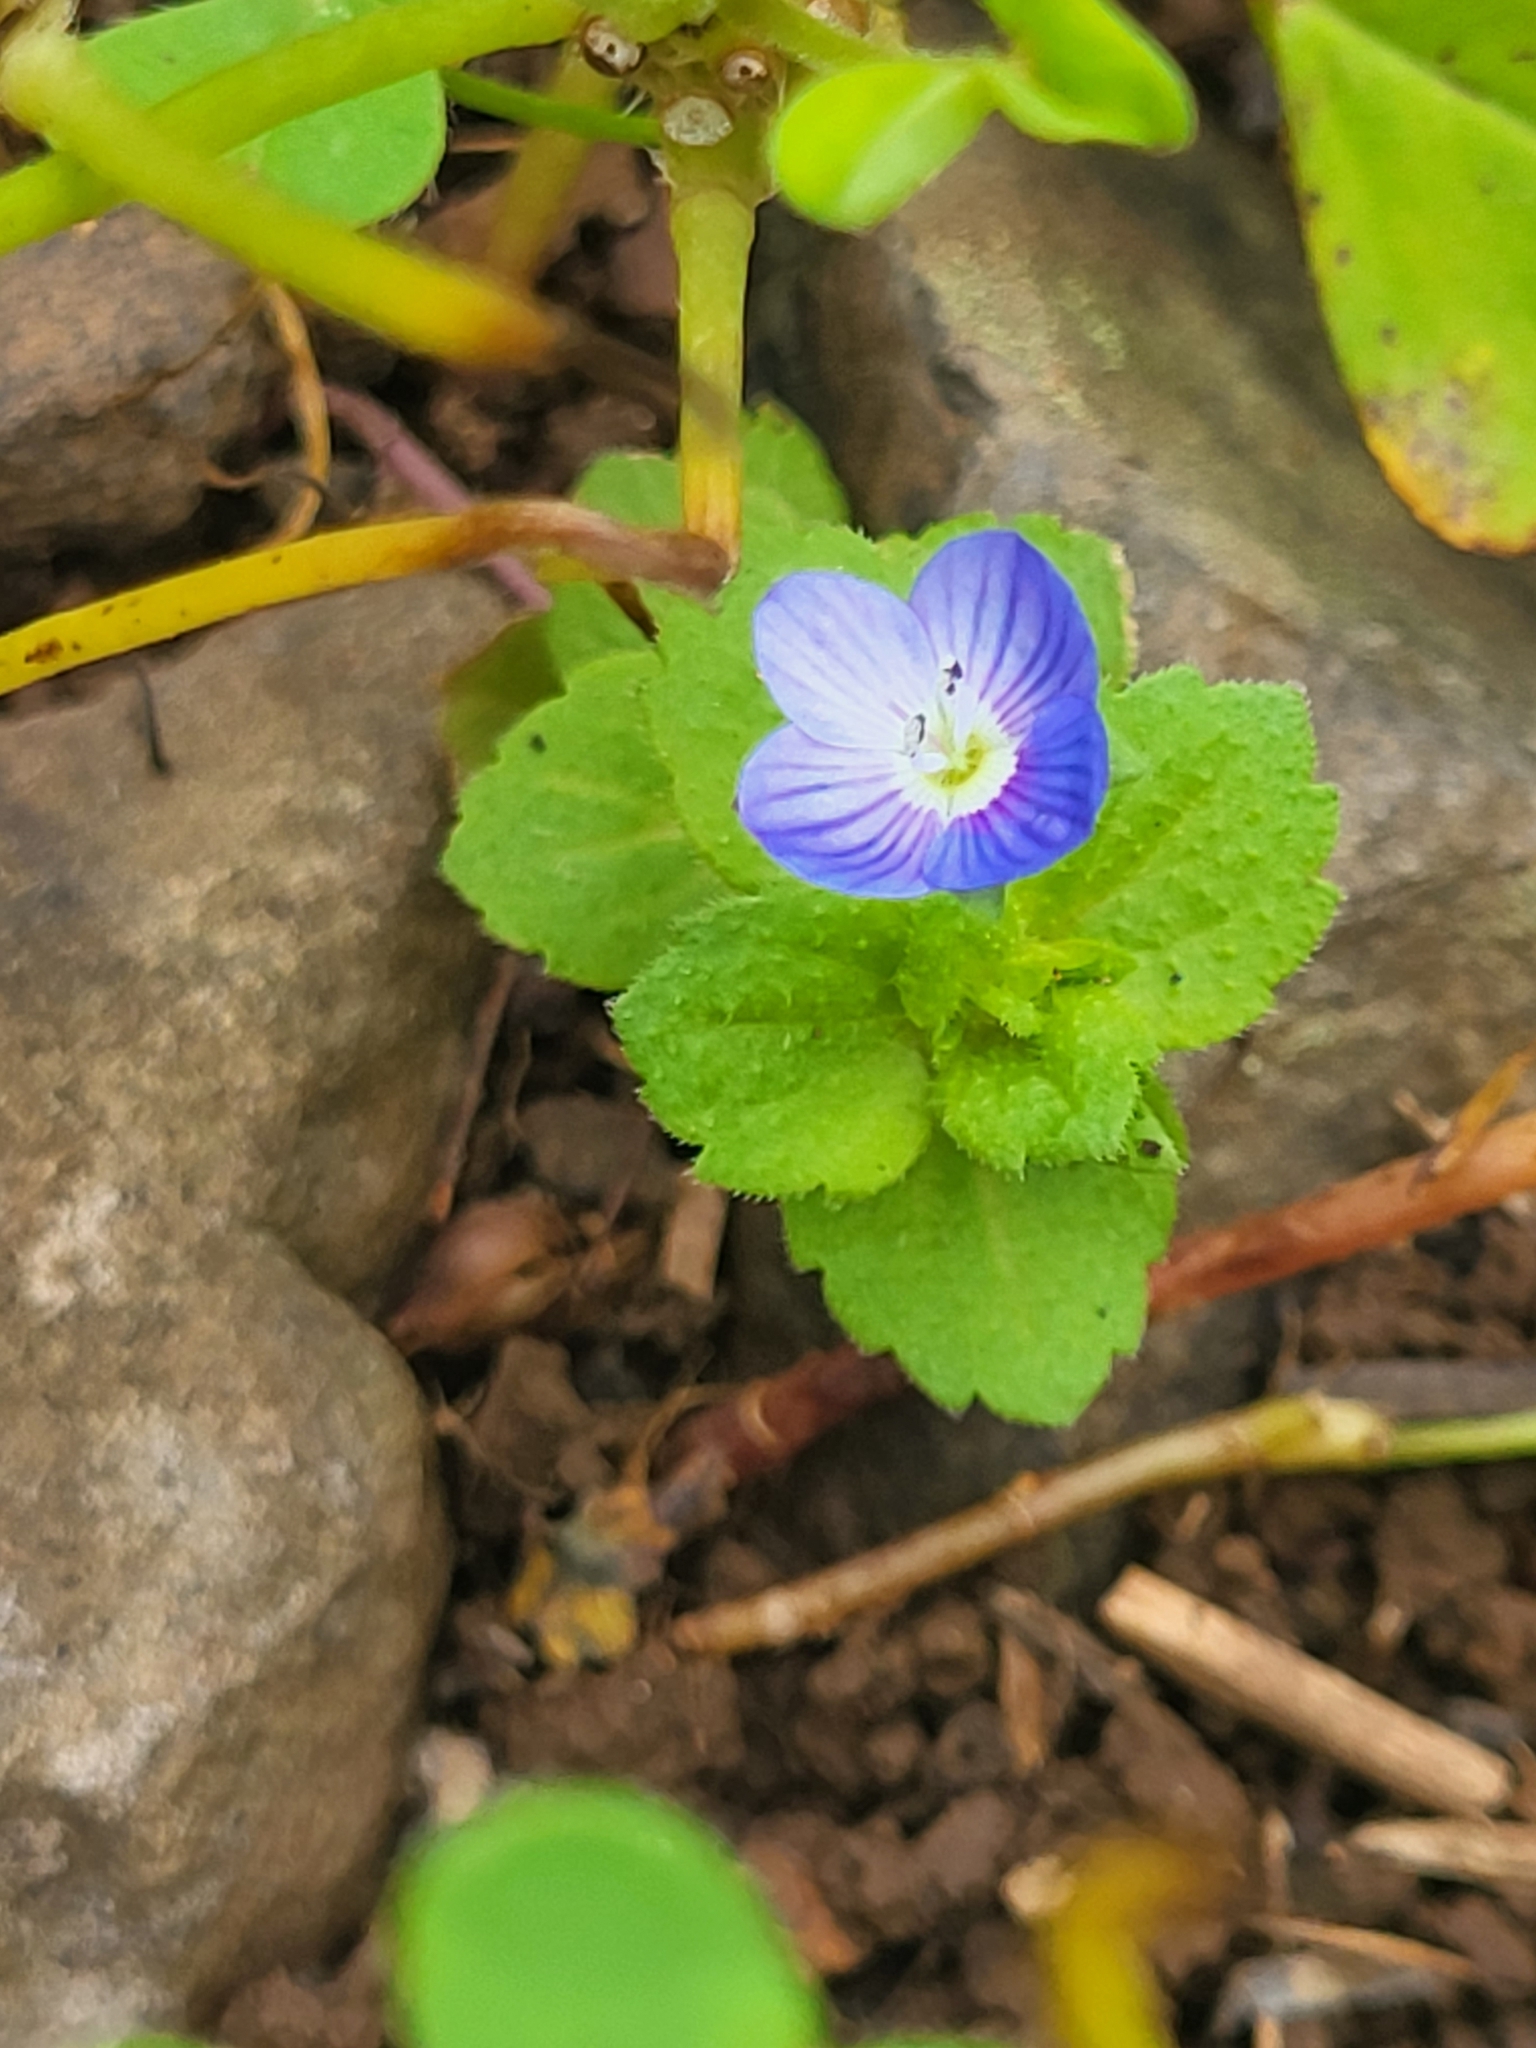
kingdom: Plantae
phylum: Tracheophyta
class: Magnoliopsida
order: Lamiales
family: Plantaginaceae
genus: Veronica
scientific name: Veronica persica
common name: Common field-speedwell
